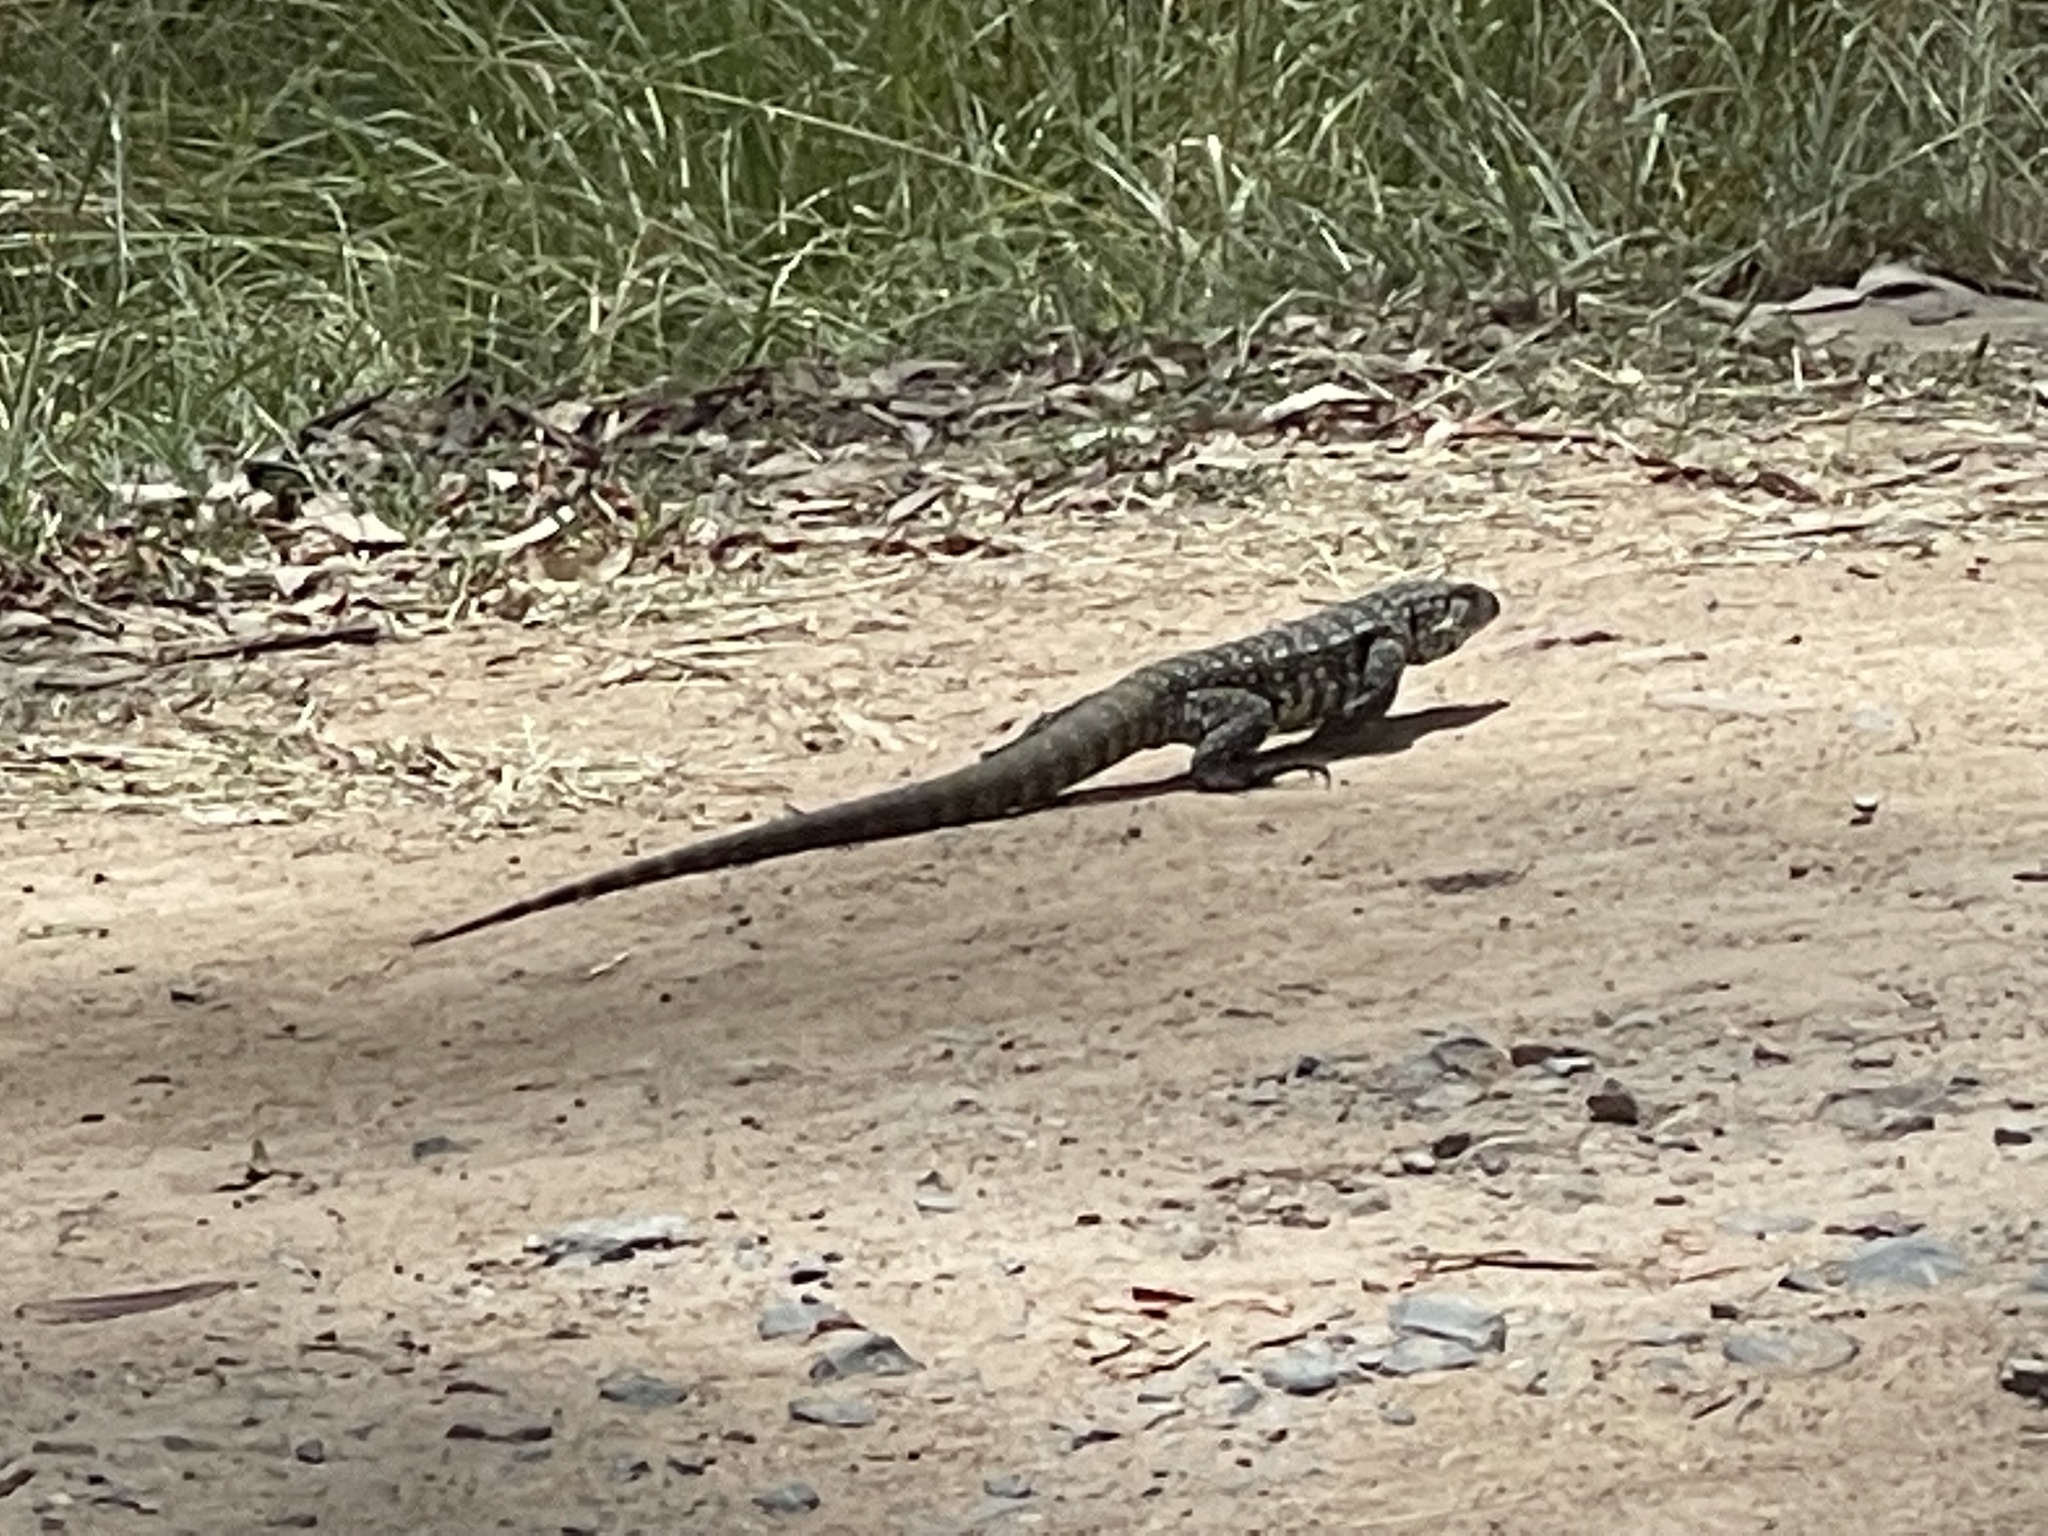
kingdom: Animalia
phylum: Chordata
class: Squamata
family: Teiidae
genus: Salvator
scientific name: Salvator merianae
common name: Argentine black and white tegu
